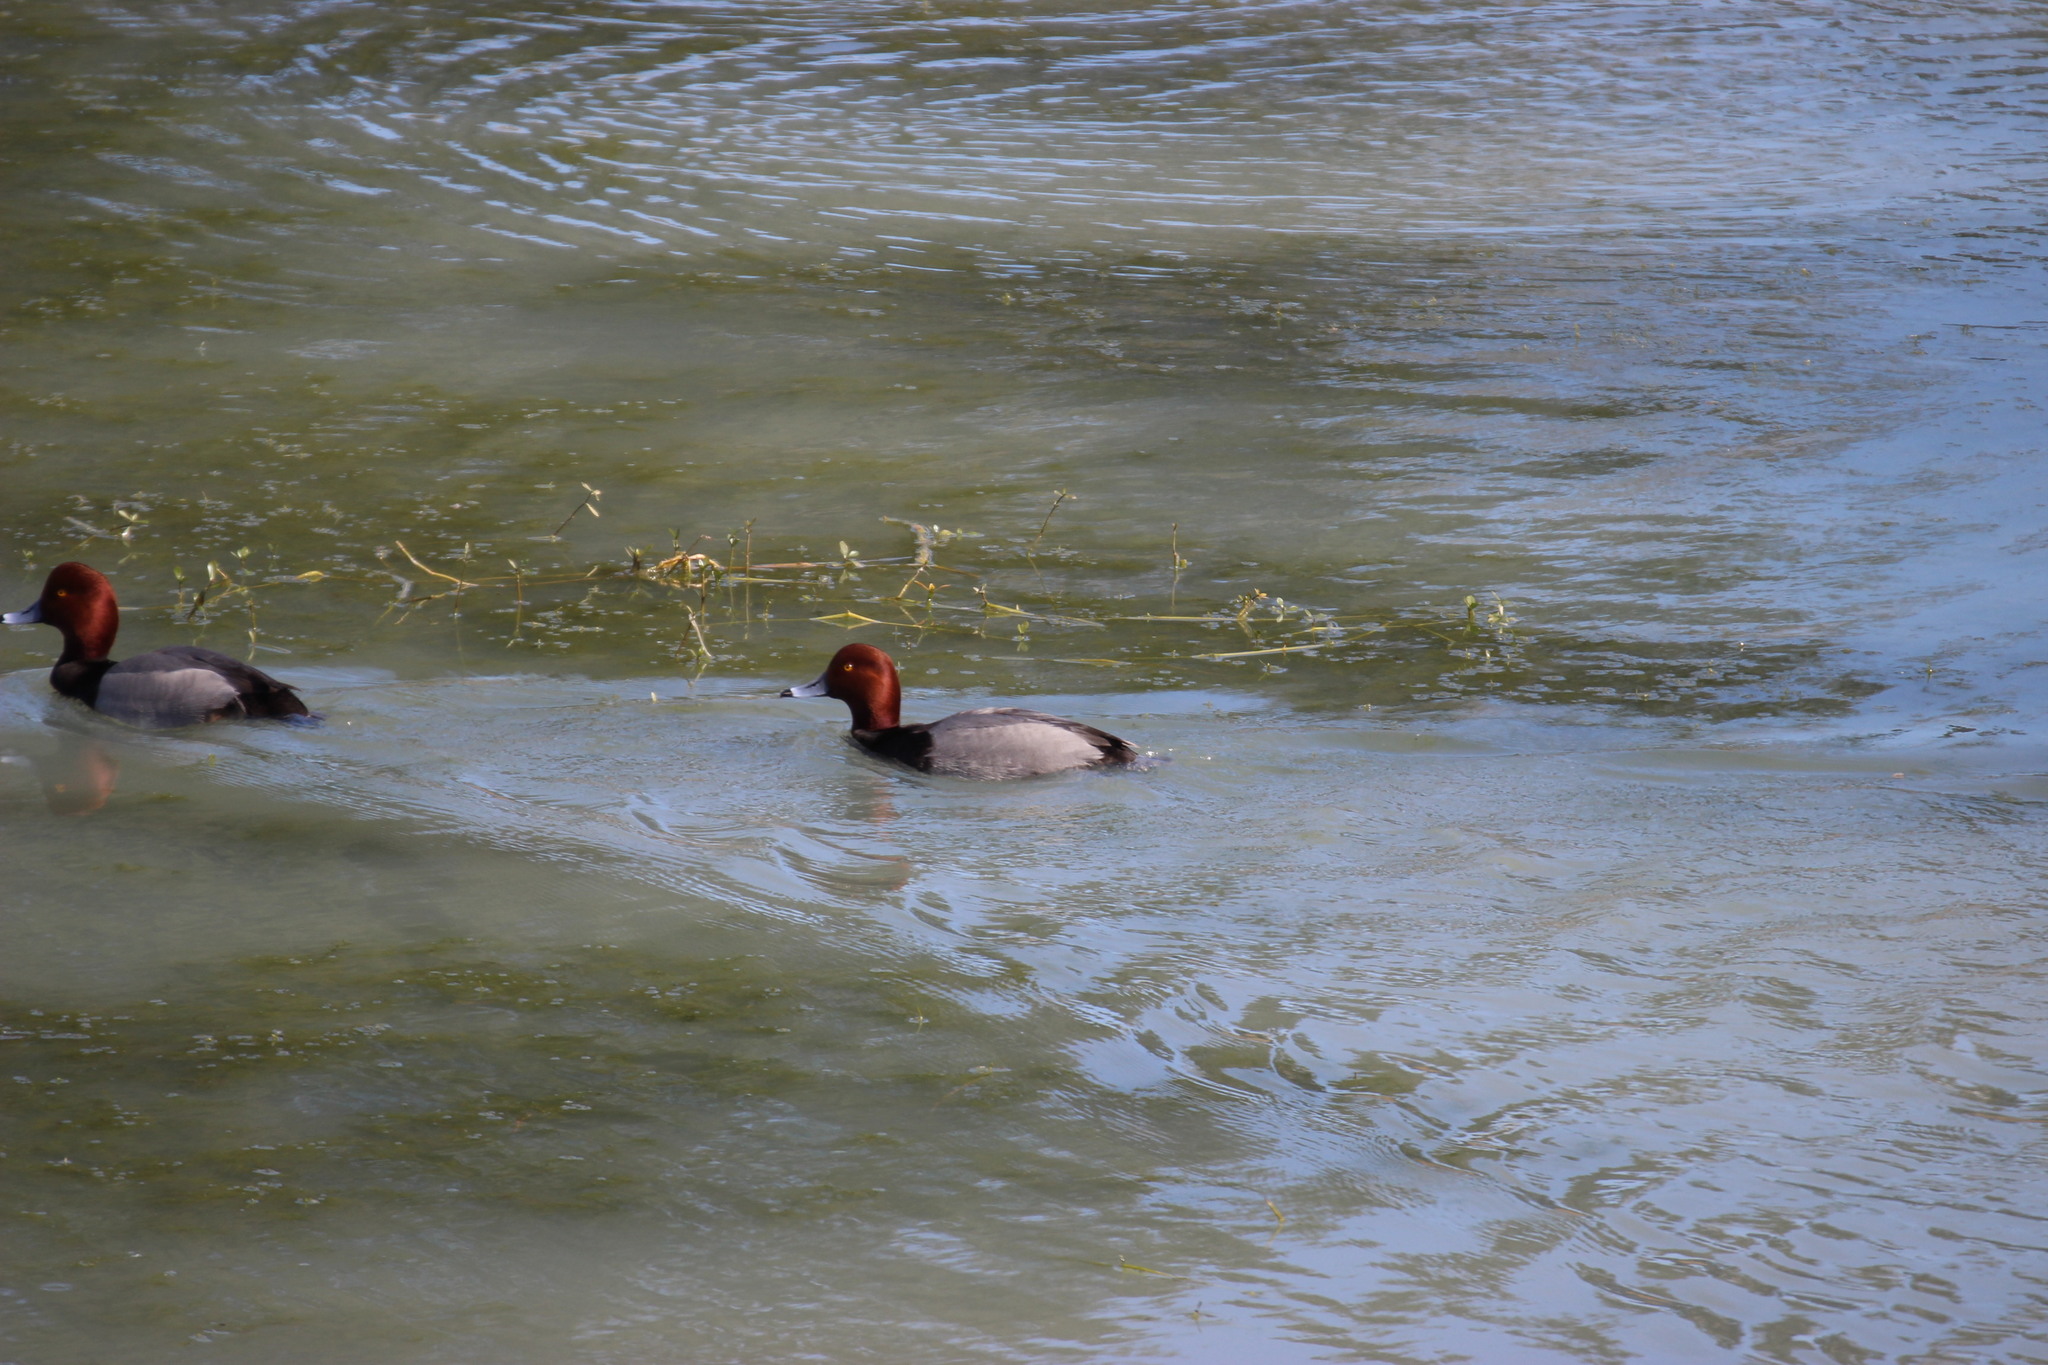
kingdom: Animalia
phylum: Chordata
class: Aves
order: Anseriformes
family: Anatidae
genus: Aythya
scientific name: Aythya americana
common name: Redhead
